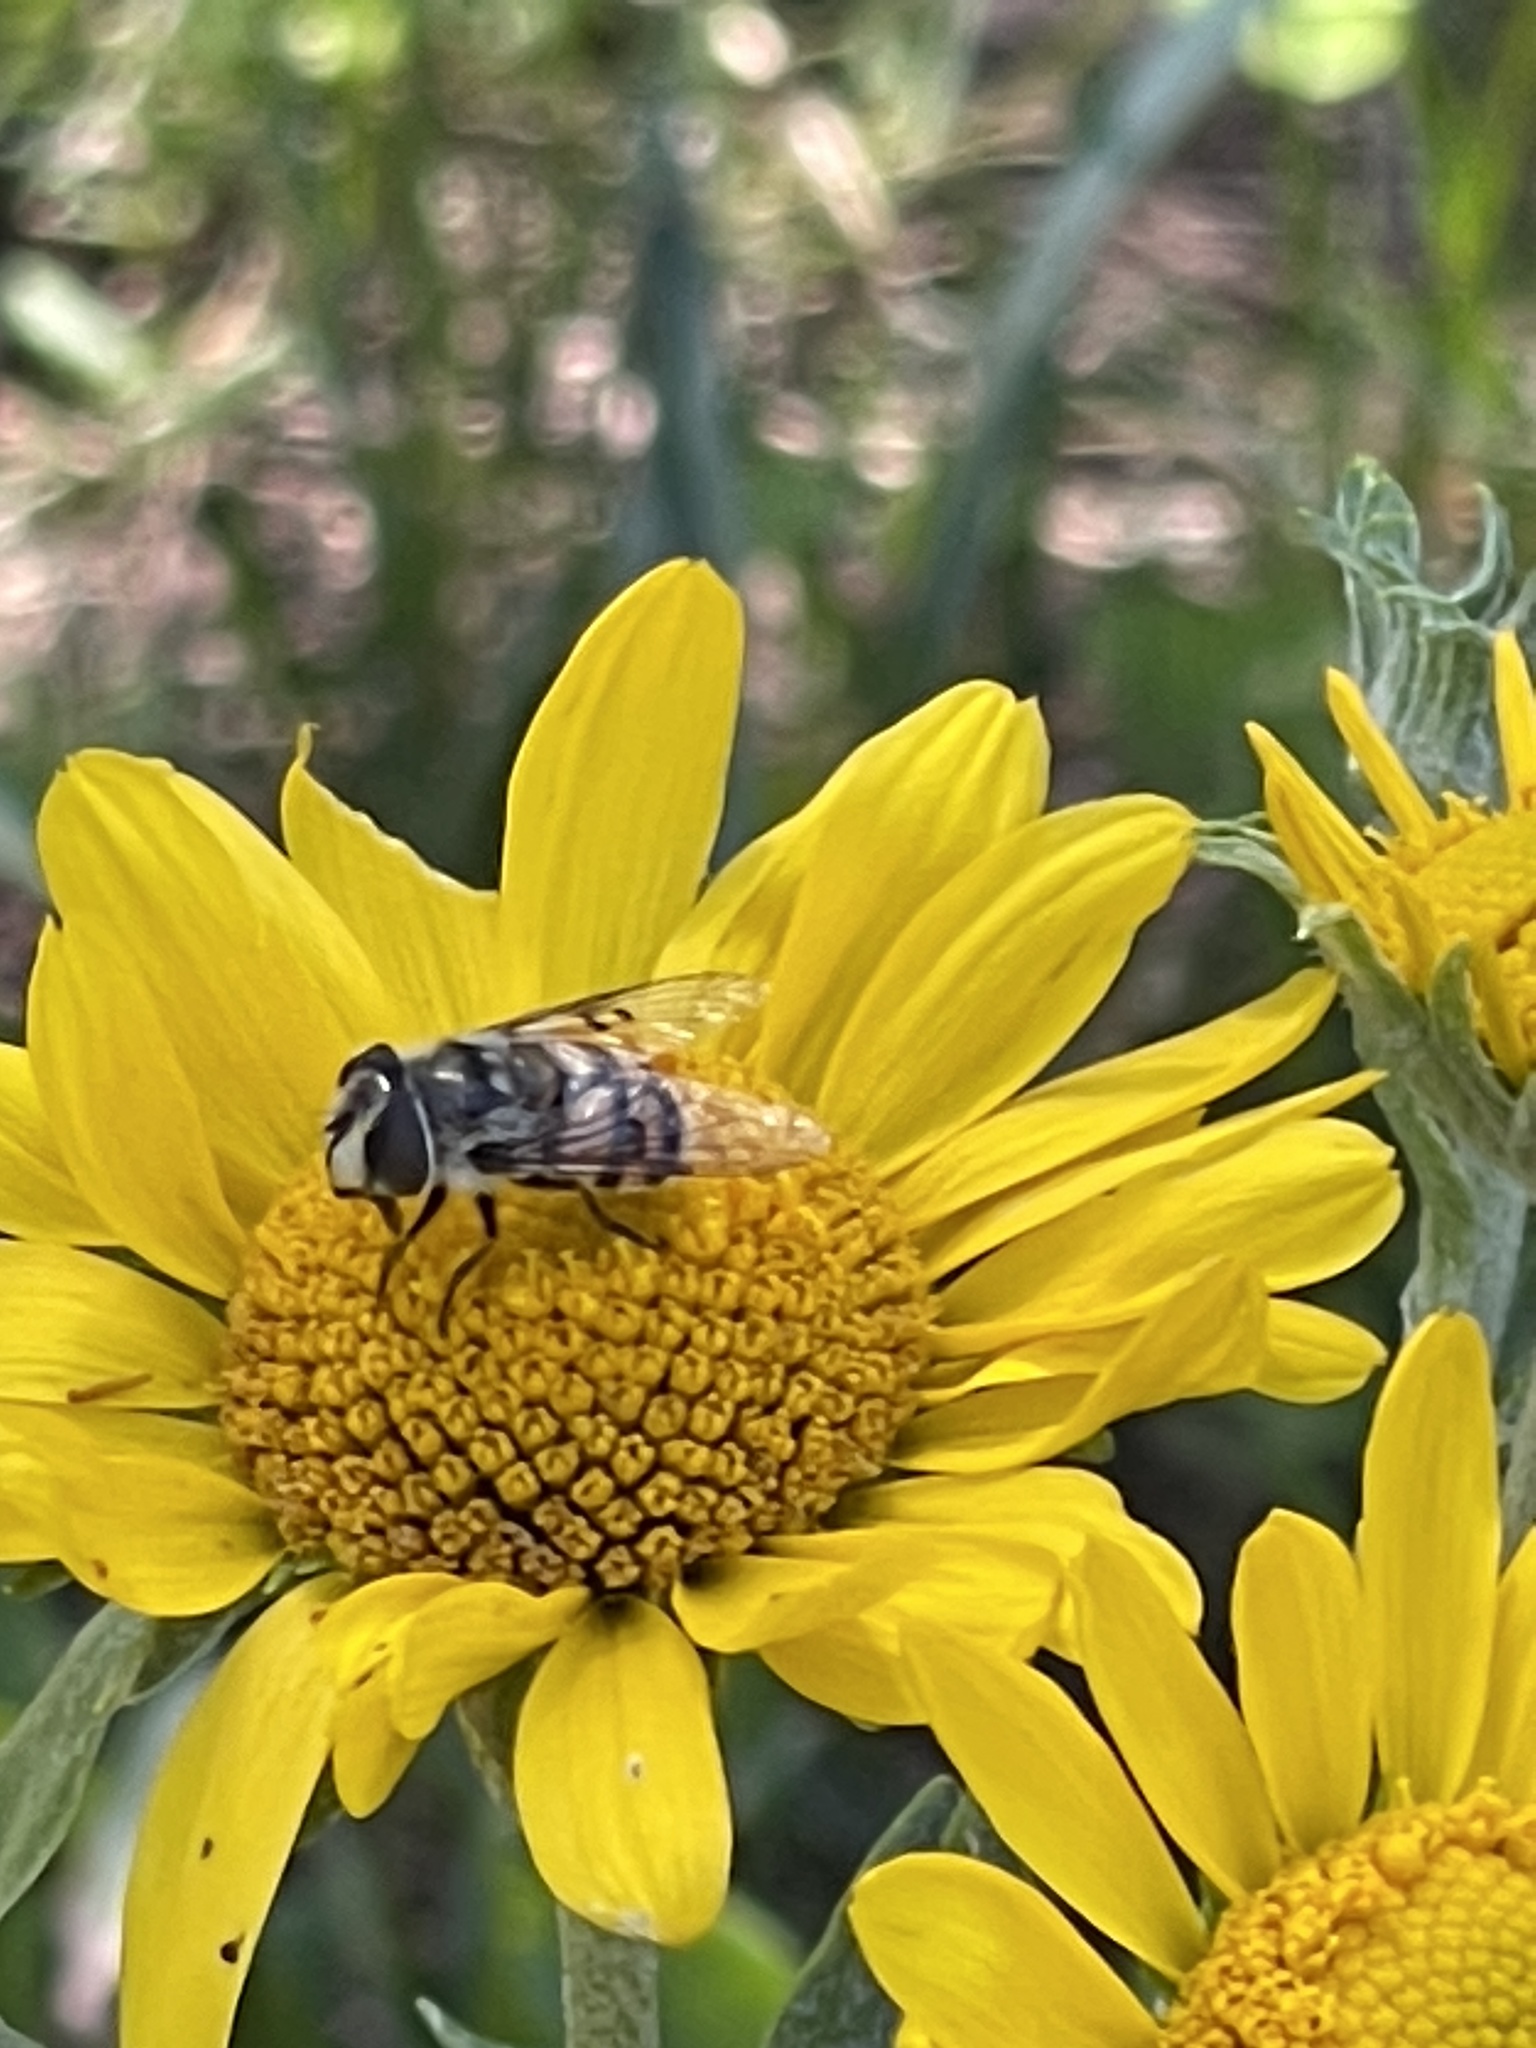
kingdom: Animalia
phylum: Arthropoda
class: Insecta
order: Diptera
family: Syrphidae
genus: Copestylum
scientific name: Copestylum avidum
